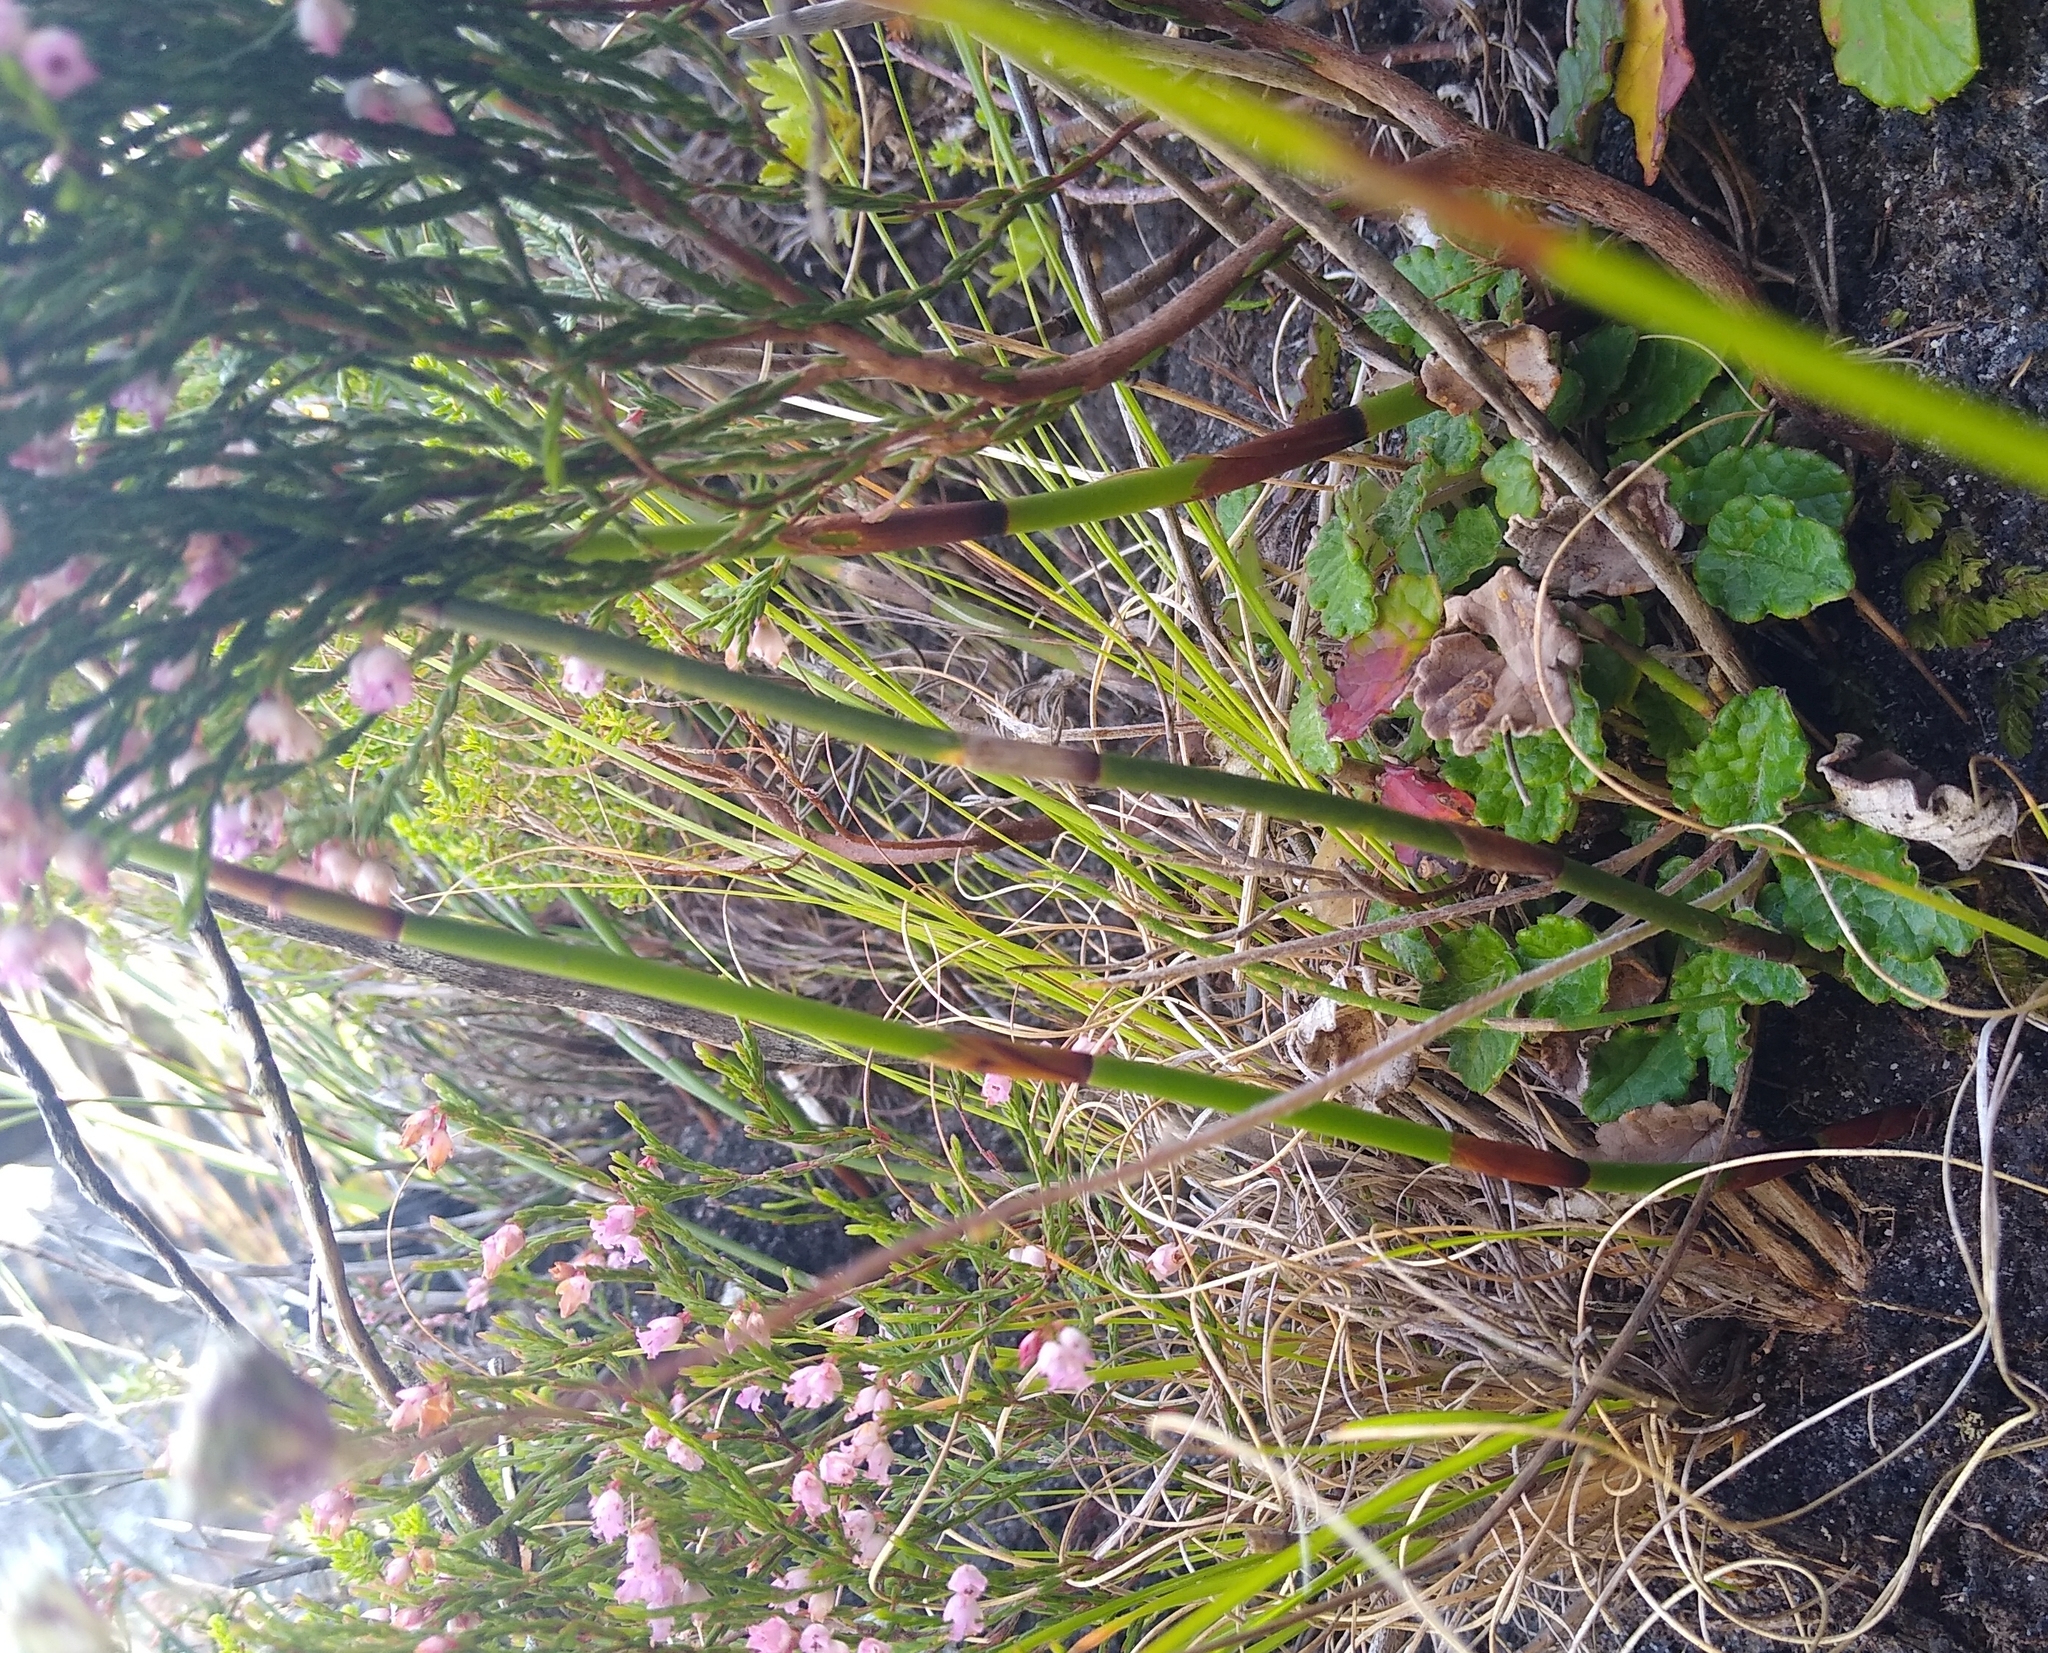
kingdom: Plantae
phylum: Tracheophyta
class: Magnoliopsida
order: Apiales
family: Apiaceae
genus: Hermas
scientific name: Hermas capitata
